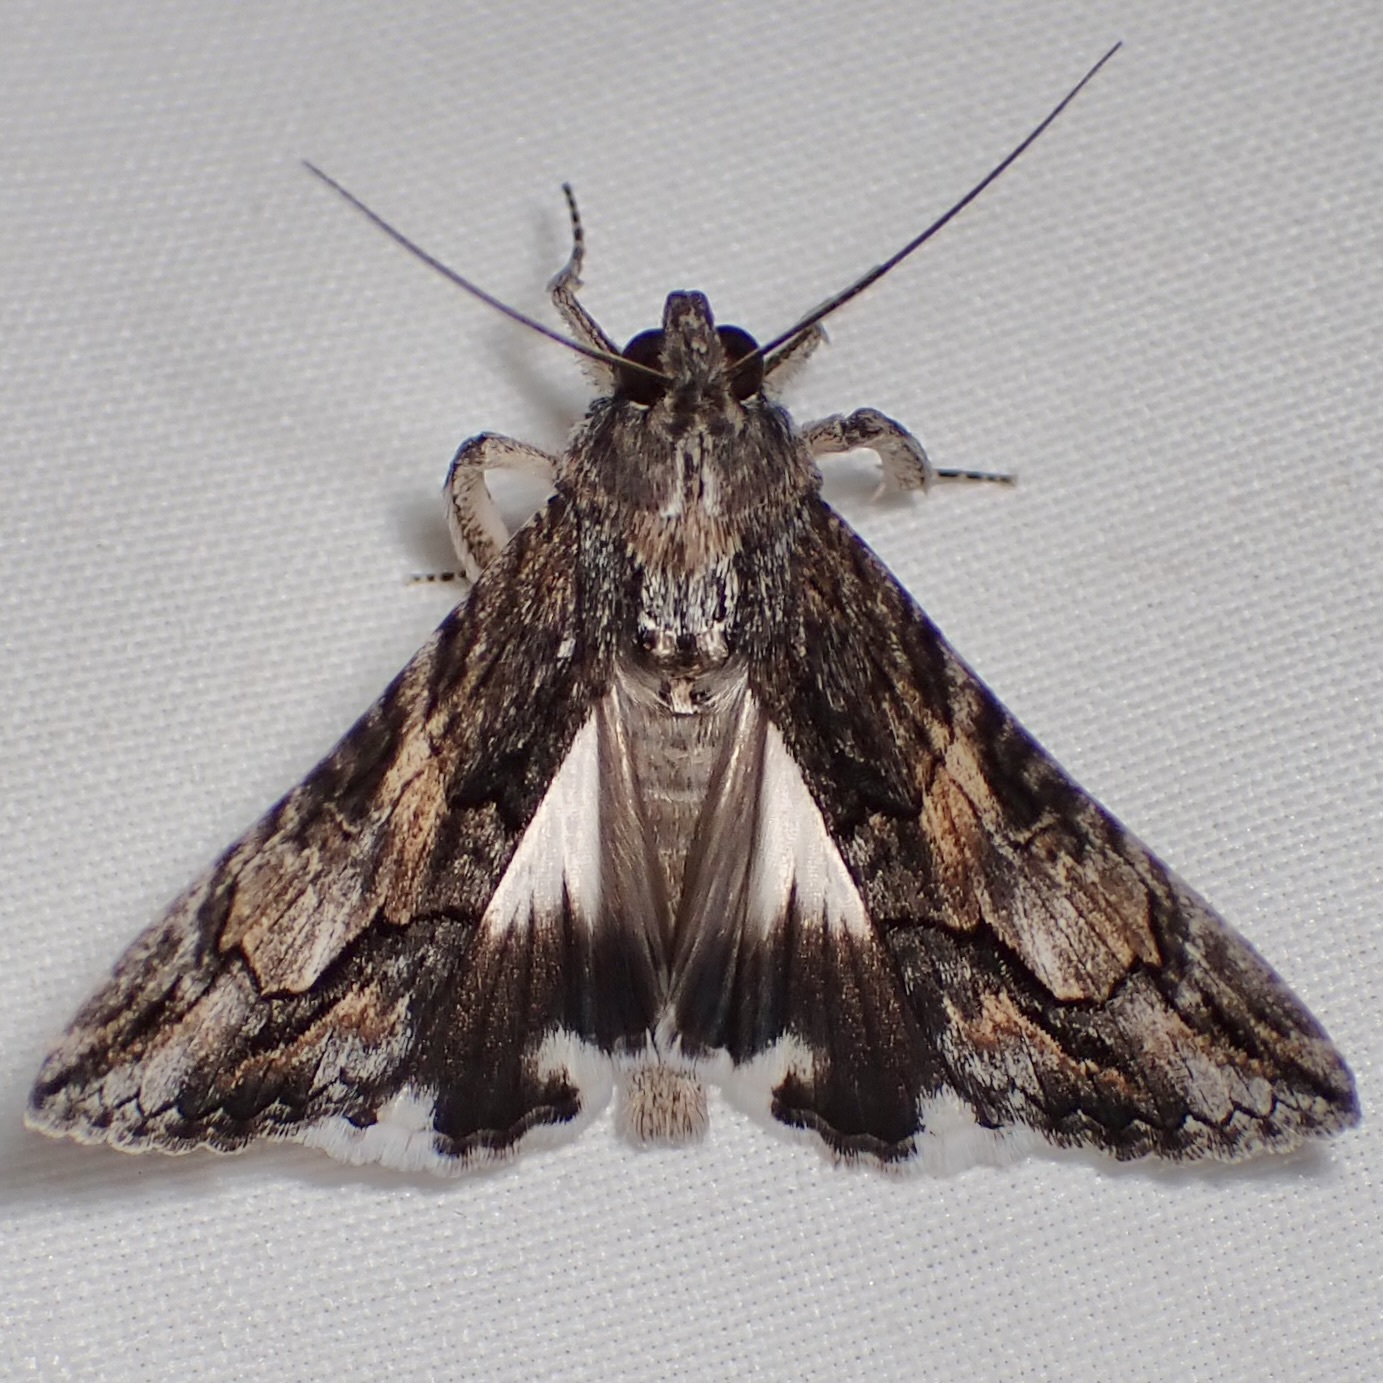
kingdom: Animalia
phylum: Arthropoda
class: Insecta
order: Lepidoptera
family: Erebidae
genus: Melipotis
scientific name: Melipotis jucunda
